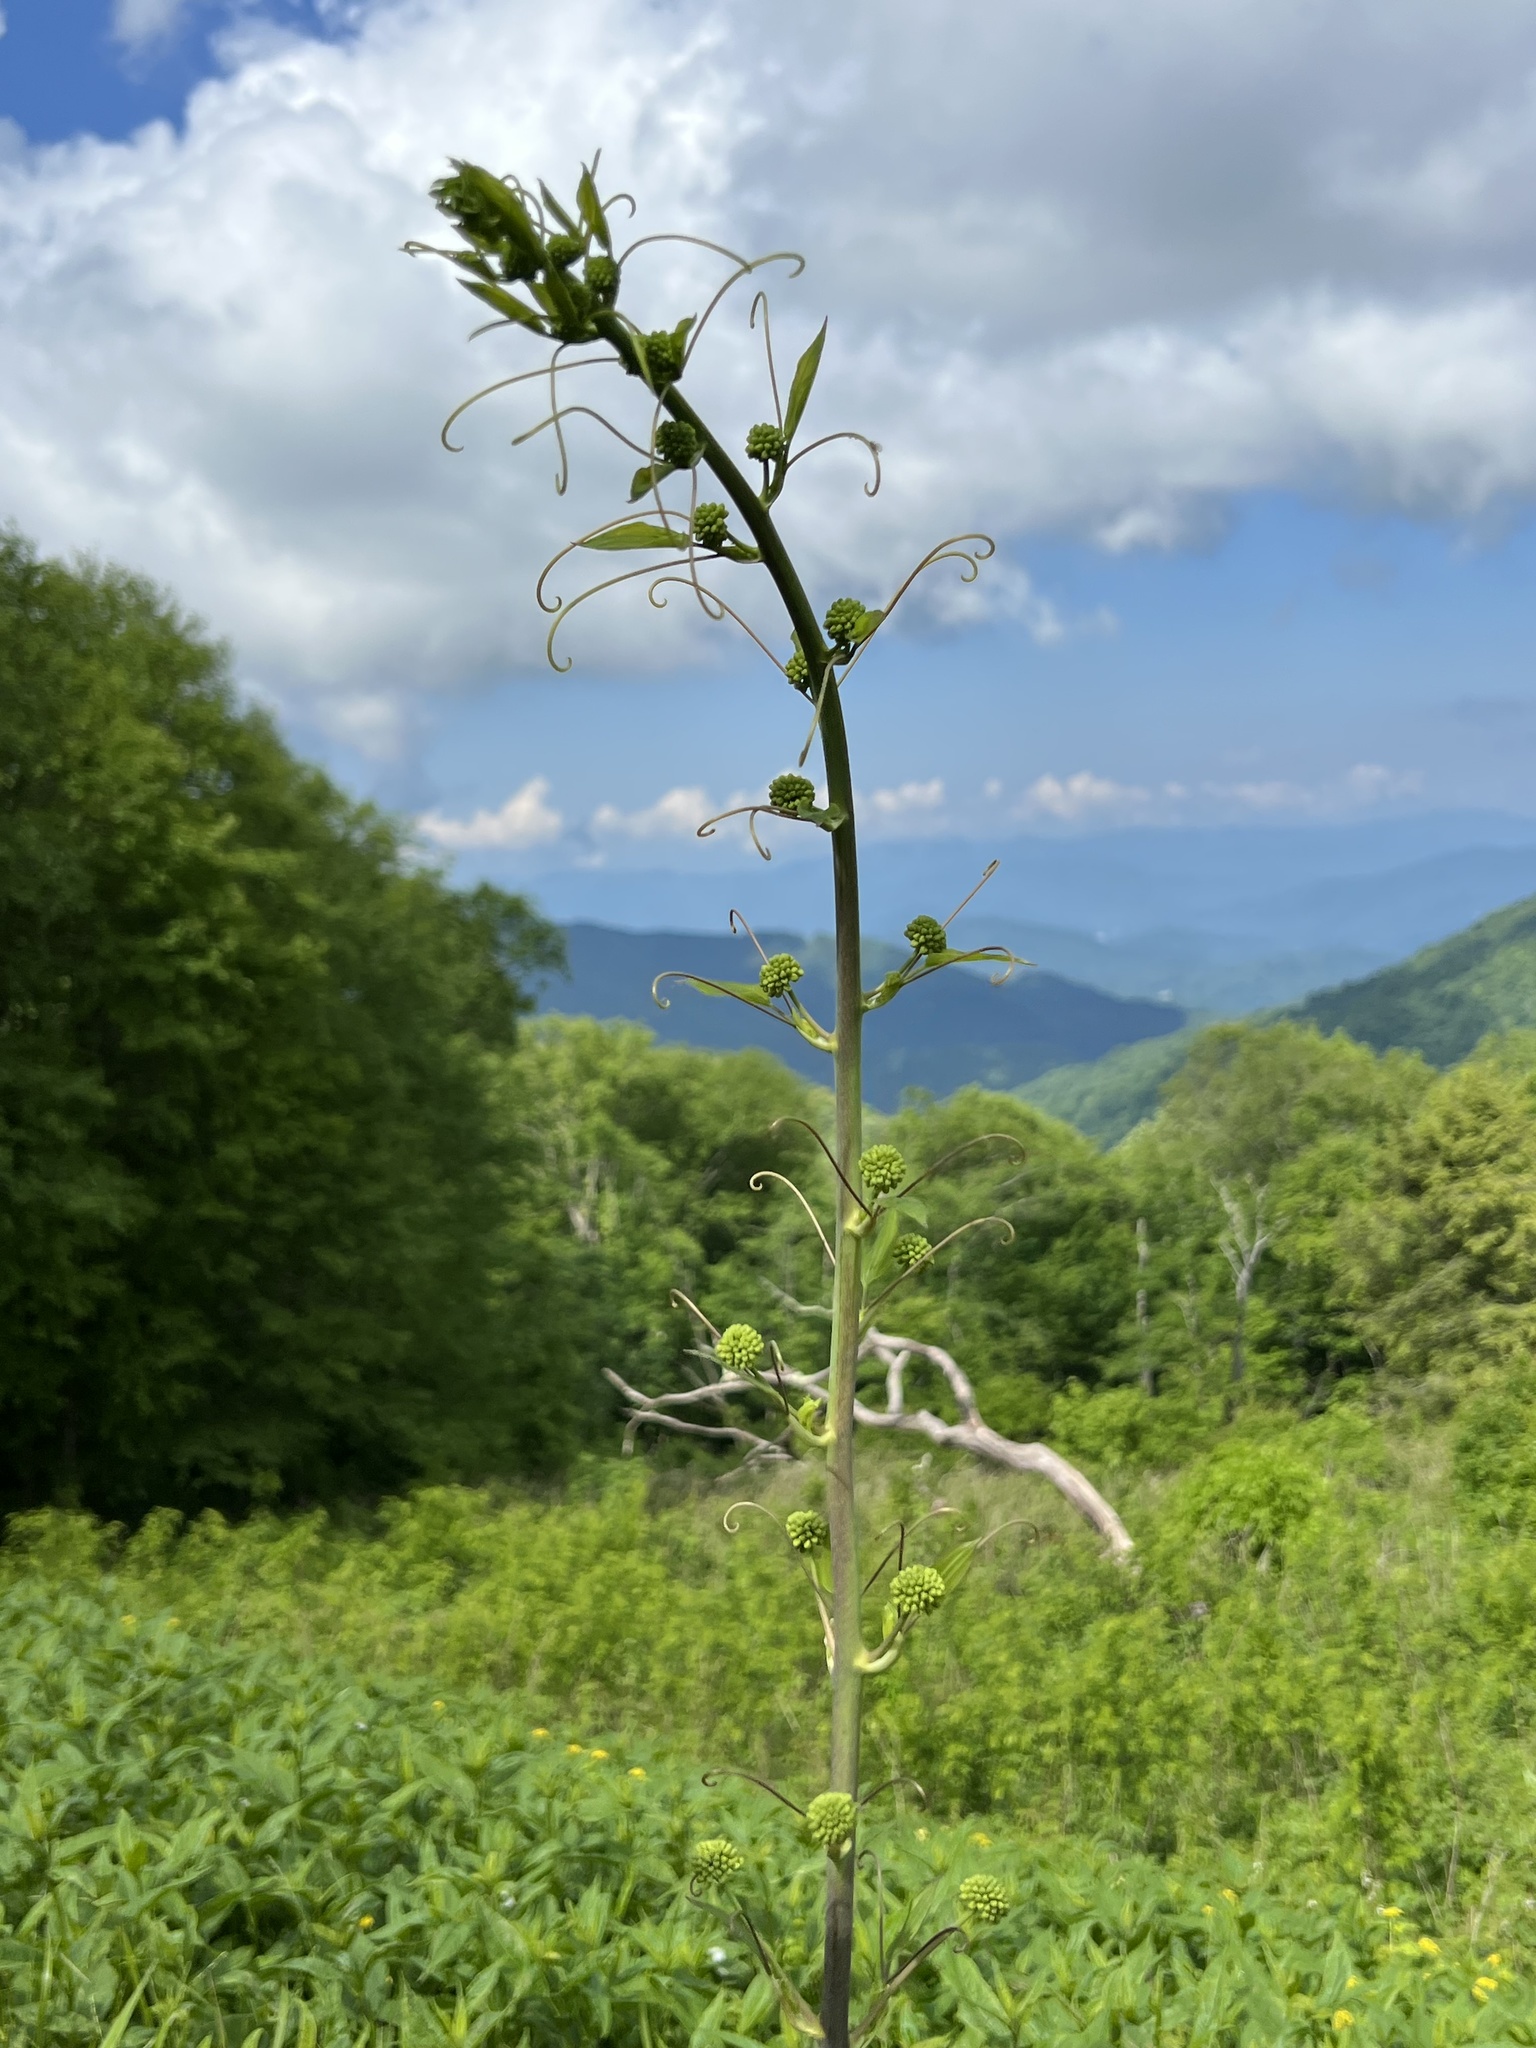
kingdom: Plantae
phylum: Tracheophyta
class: Liliopsida
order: Liliales
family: Smilacaceae
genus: Smilax
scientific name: Smilax herbacea
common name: Jacob's-ladder
